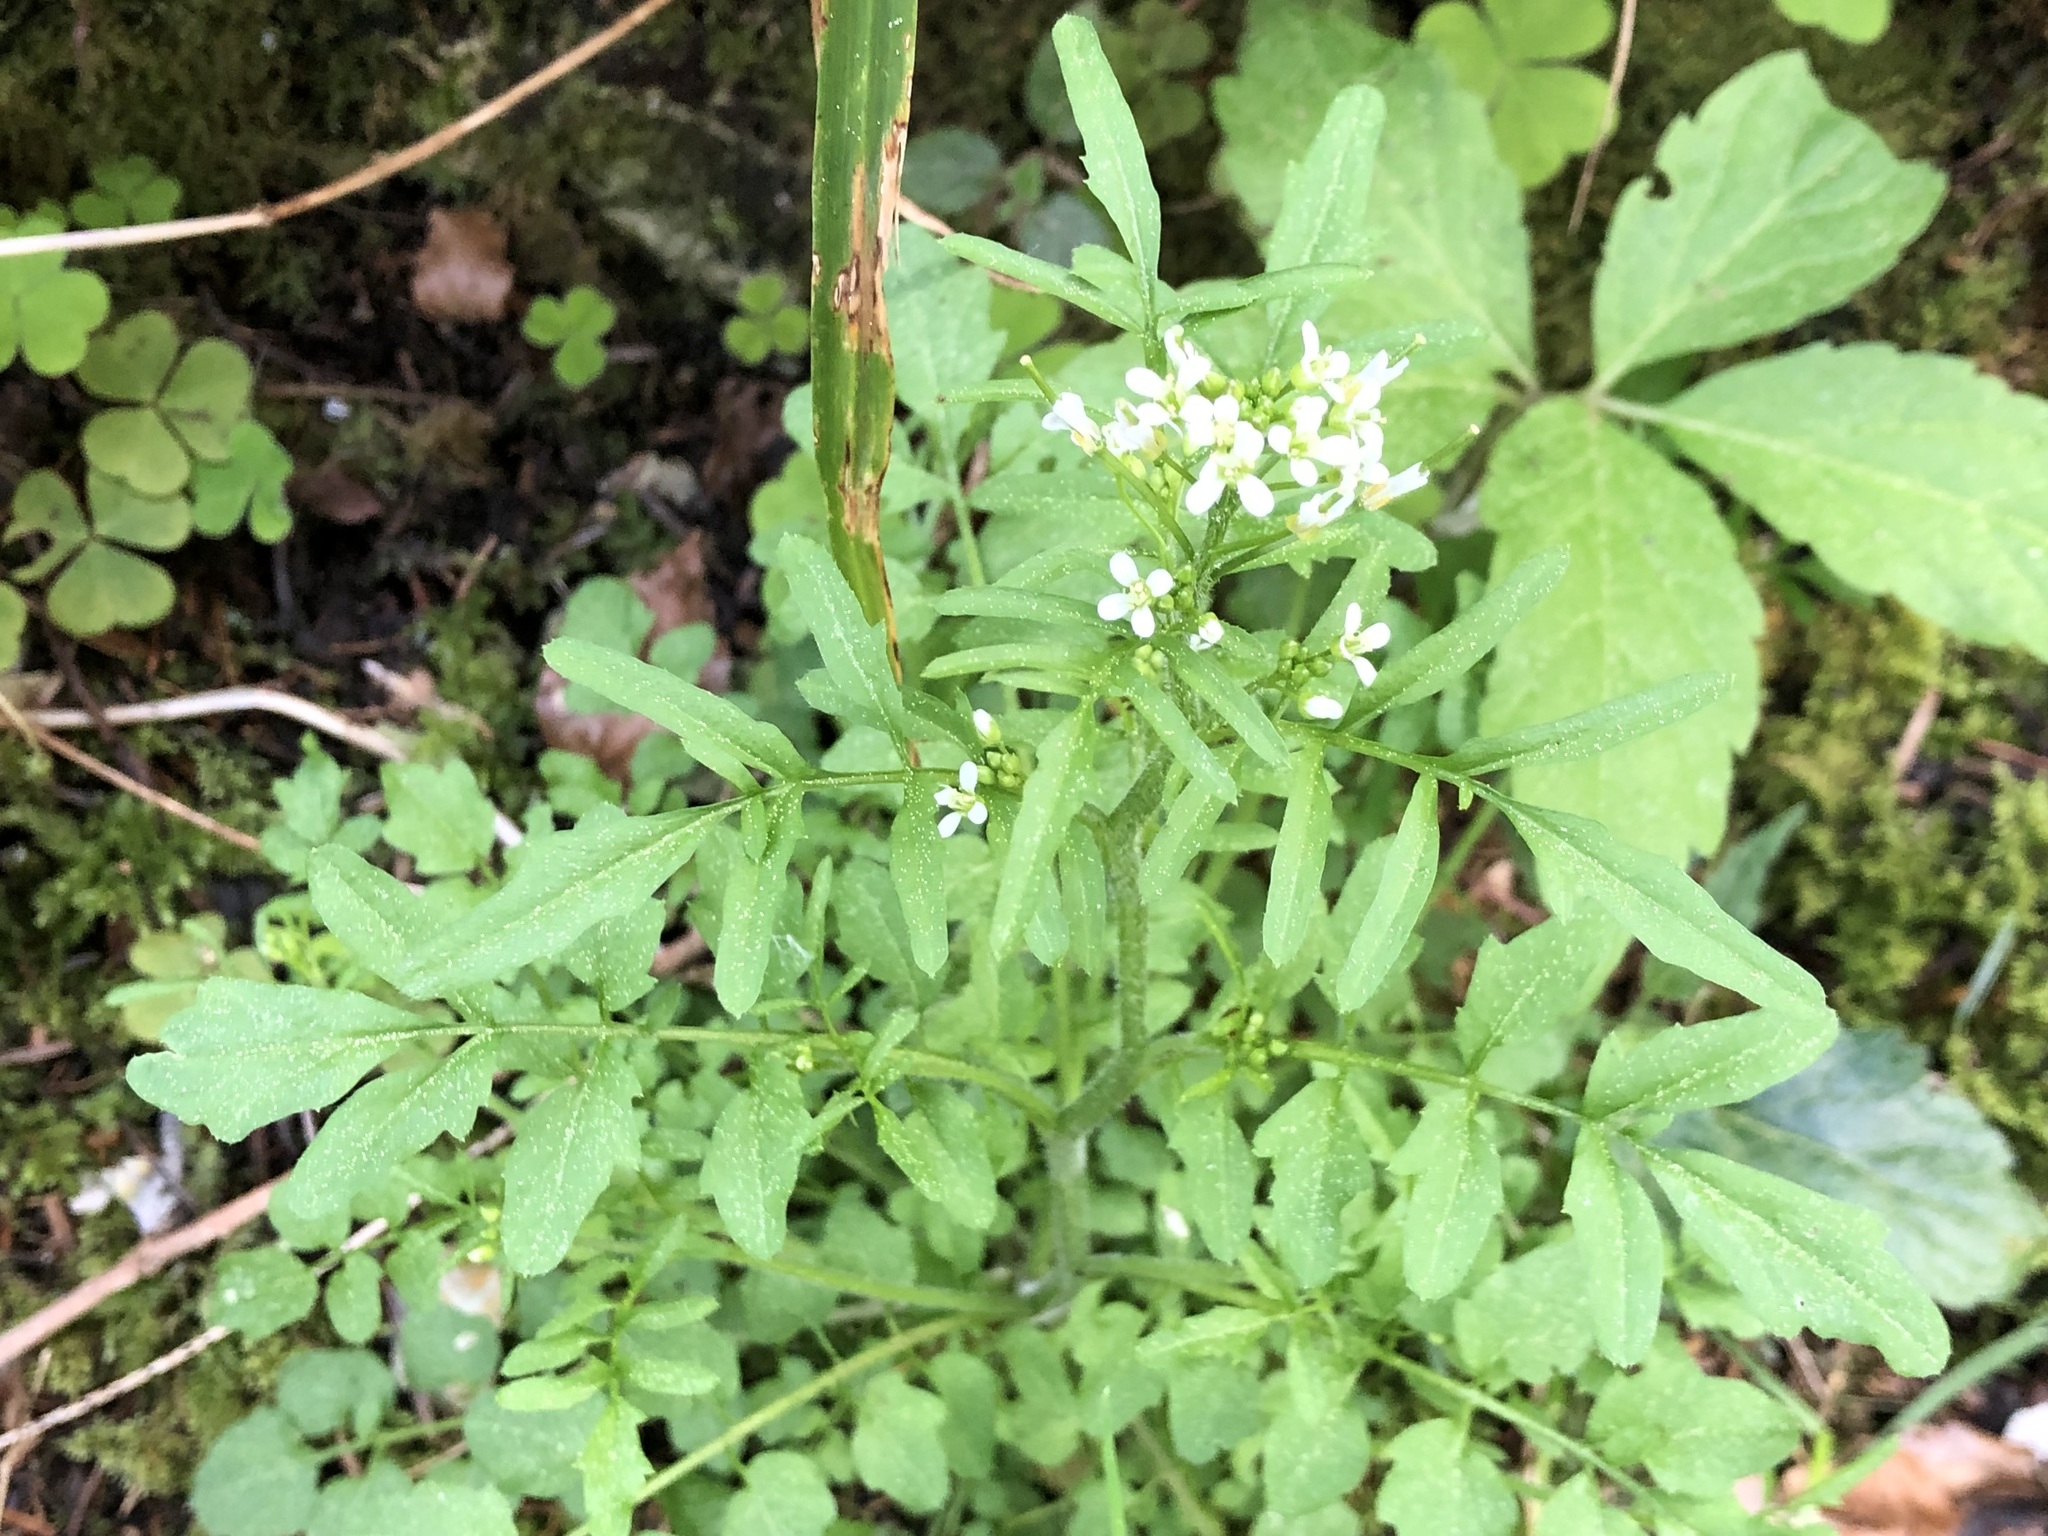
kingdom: Plantae
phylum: Tracheophyta
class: Magnoliopsida
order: Brassicales
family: Brassicaceae
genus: Cardamine
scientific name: Cardamine flexuosa
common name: Woodland bittercress
